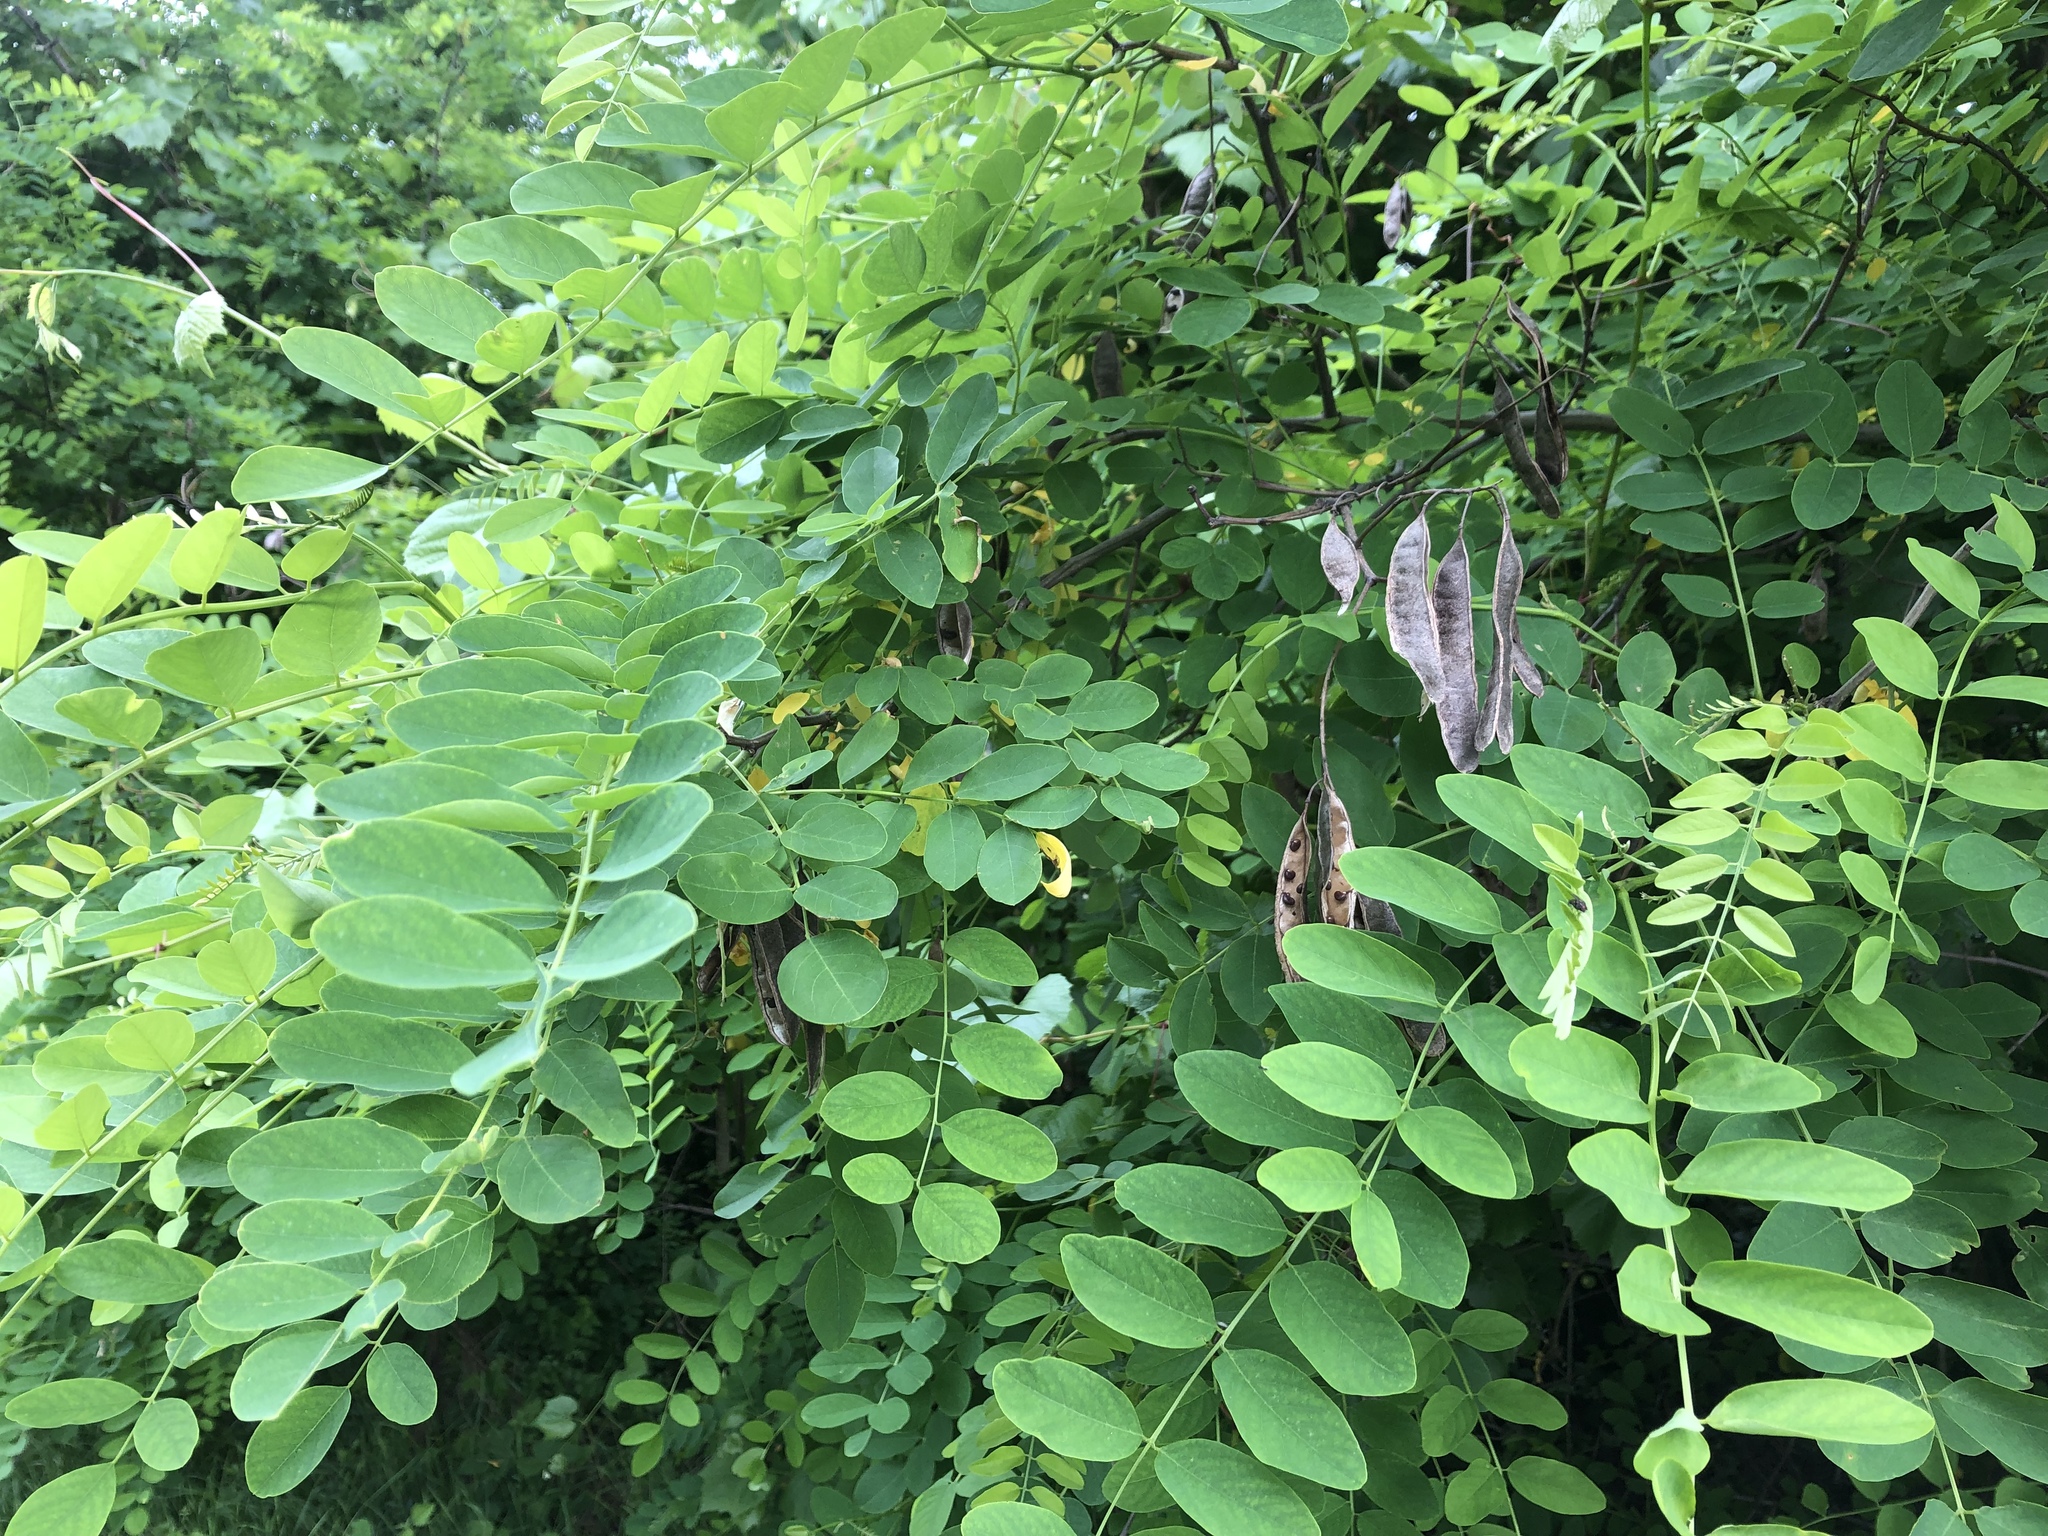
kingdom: Plantae
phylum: Tracheophyta
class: Magnoliopsida
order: Fabales
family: Fabaceae
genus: Robinia
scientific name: Robinia pseudoacacia
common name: Black locust
